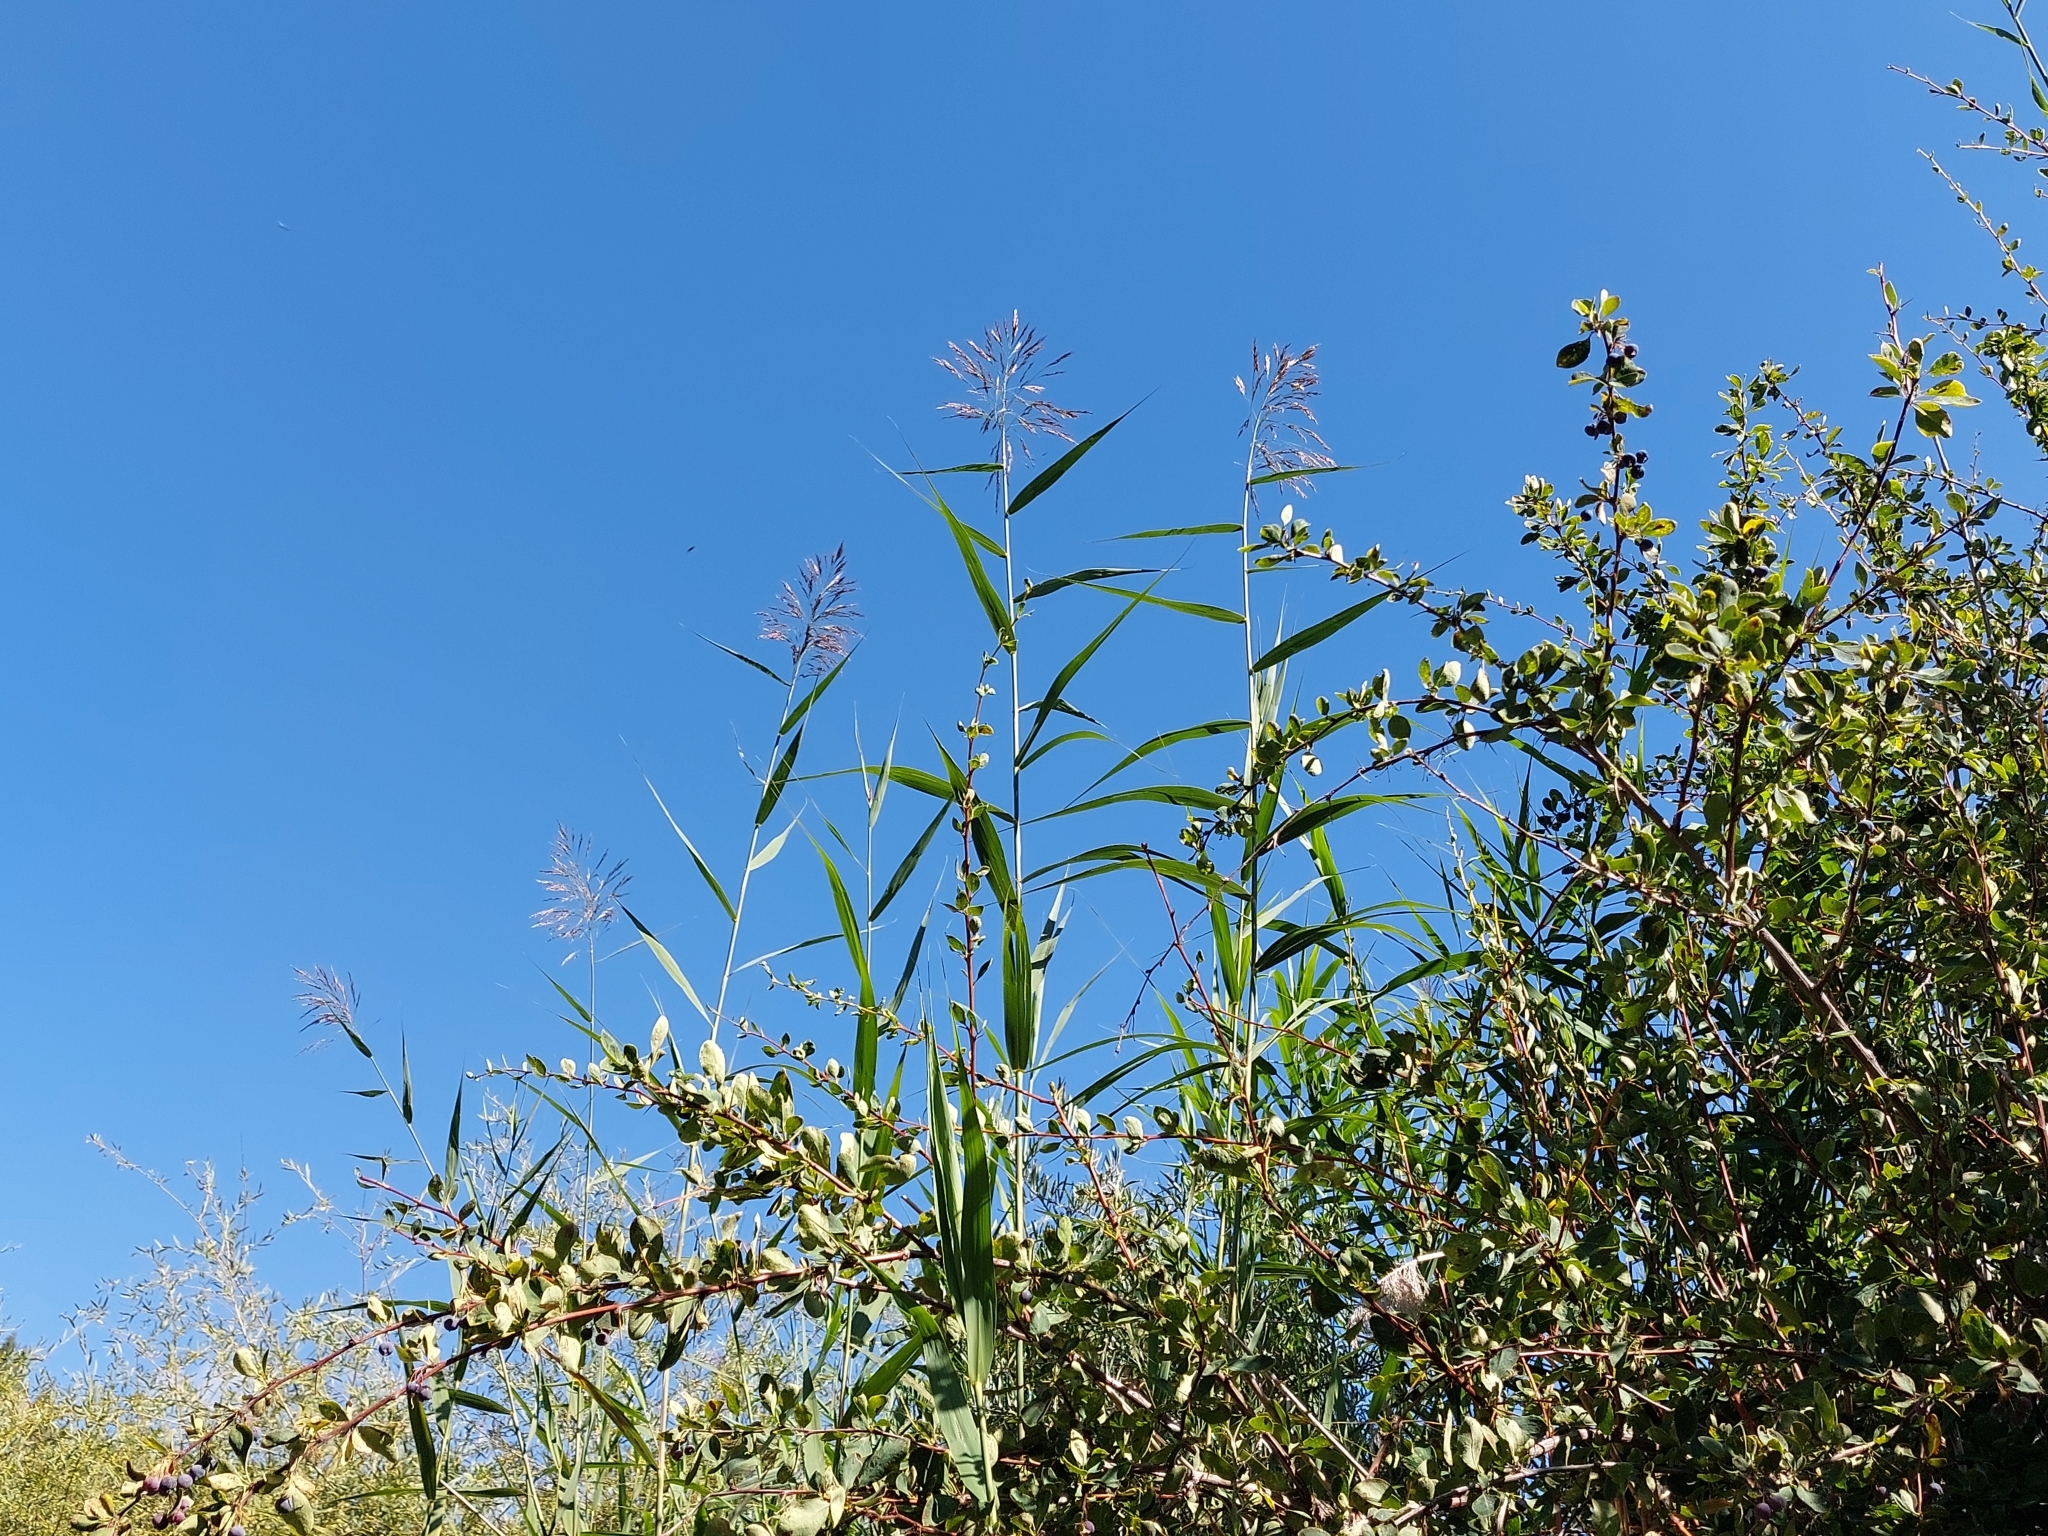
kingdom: Plantae
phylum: Tracheophyta
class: Liliopsida
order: Poales
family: Poaceae
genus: Phragmites
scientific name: Phragmites australis
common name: Common reed
